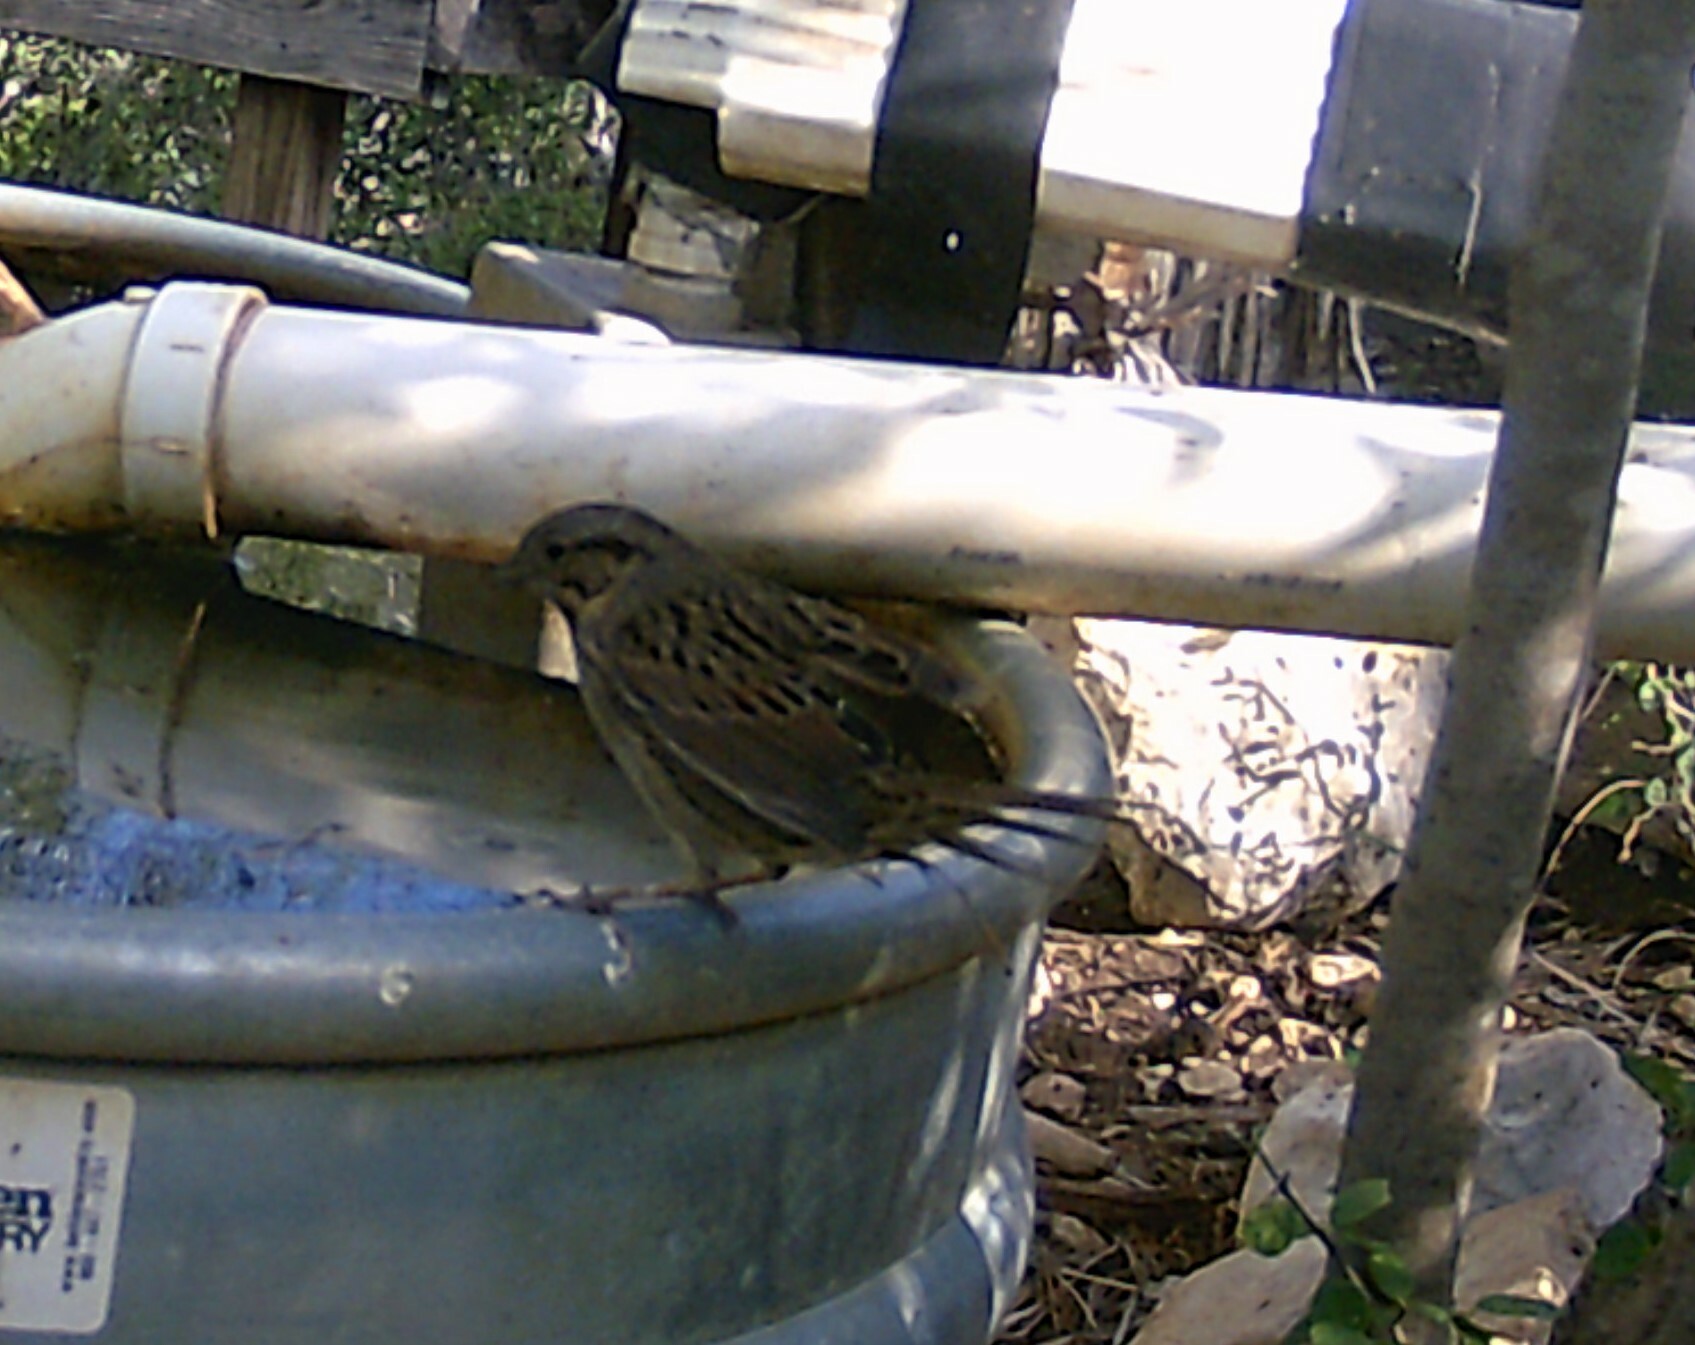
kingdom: Animalia
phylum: Chordata
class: Aves
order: Passeriformes
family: Passerellidae
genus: Melospiza
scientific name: Melospiza lincolnii
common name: Lincoln's sparrow
